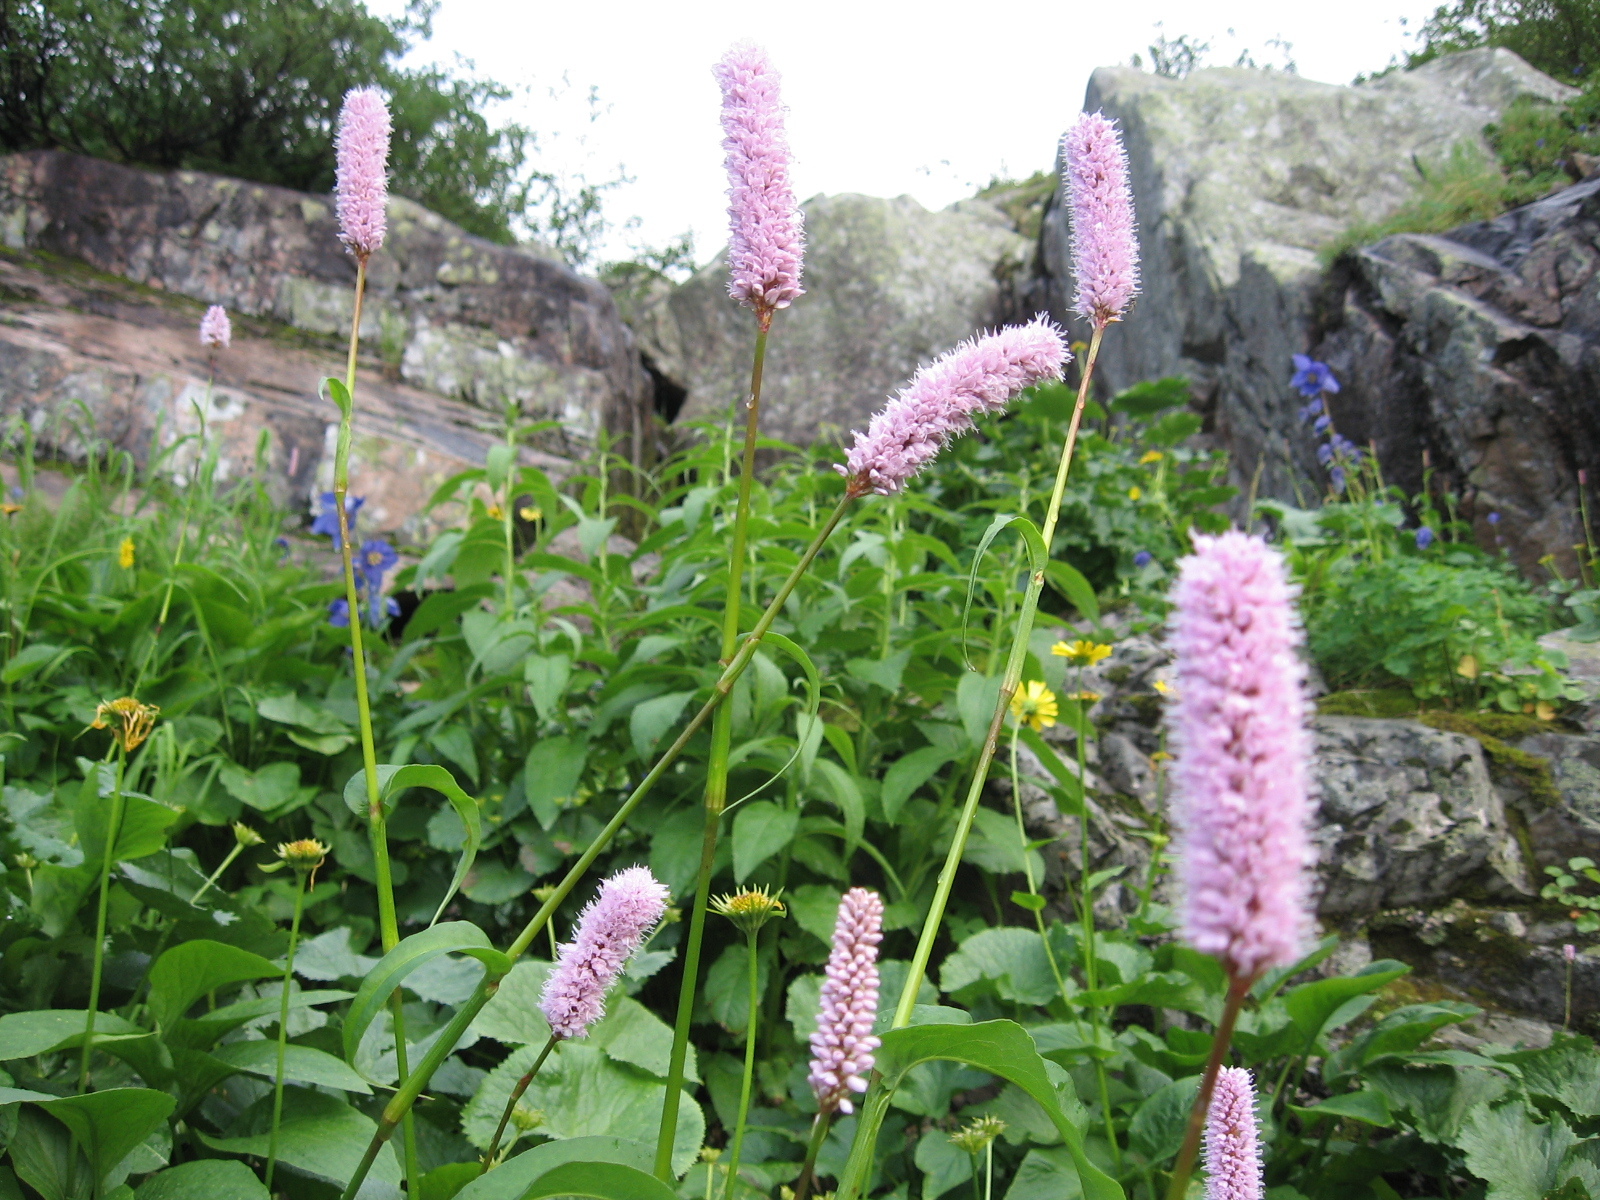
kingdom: Plantae
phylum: Tracheophyta
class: Magnoliopsida
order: Caryophyllales
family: Polygonaceae
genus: Bistorta
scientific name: Bistorta officinalis
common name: Common bistort
